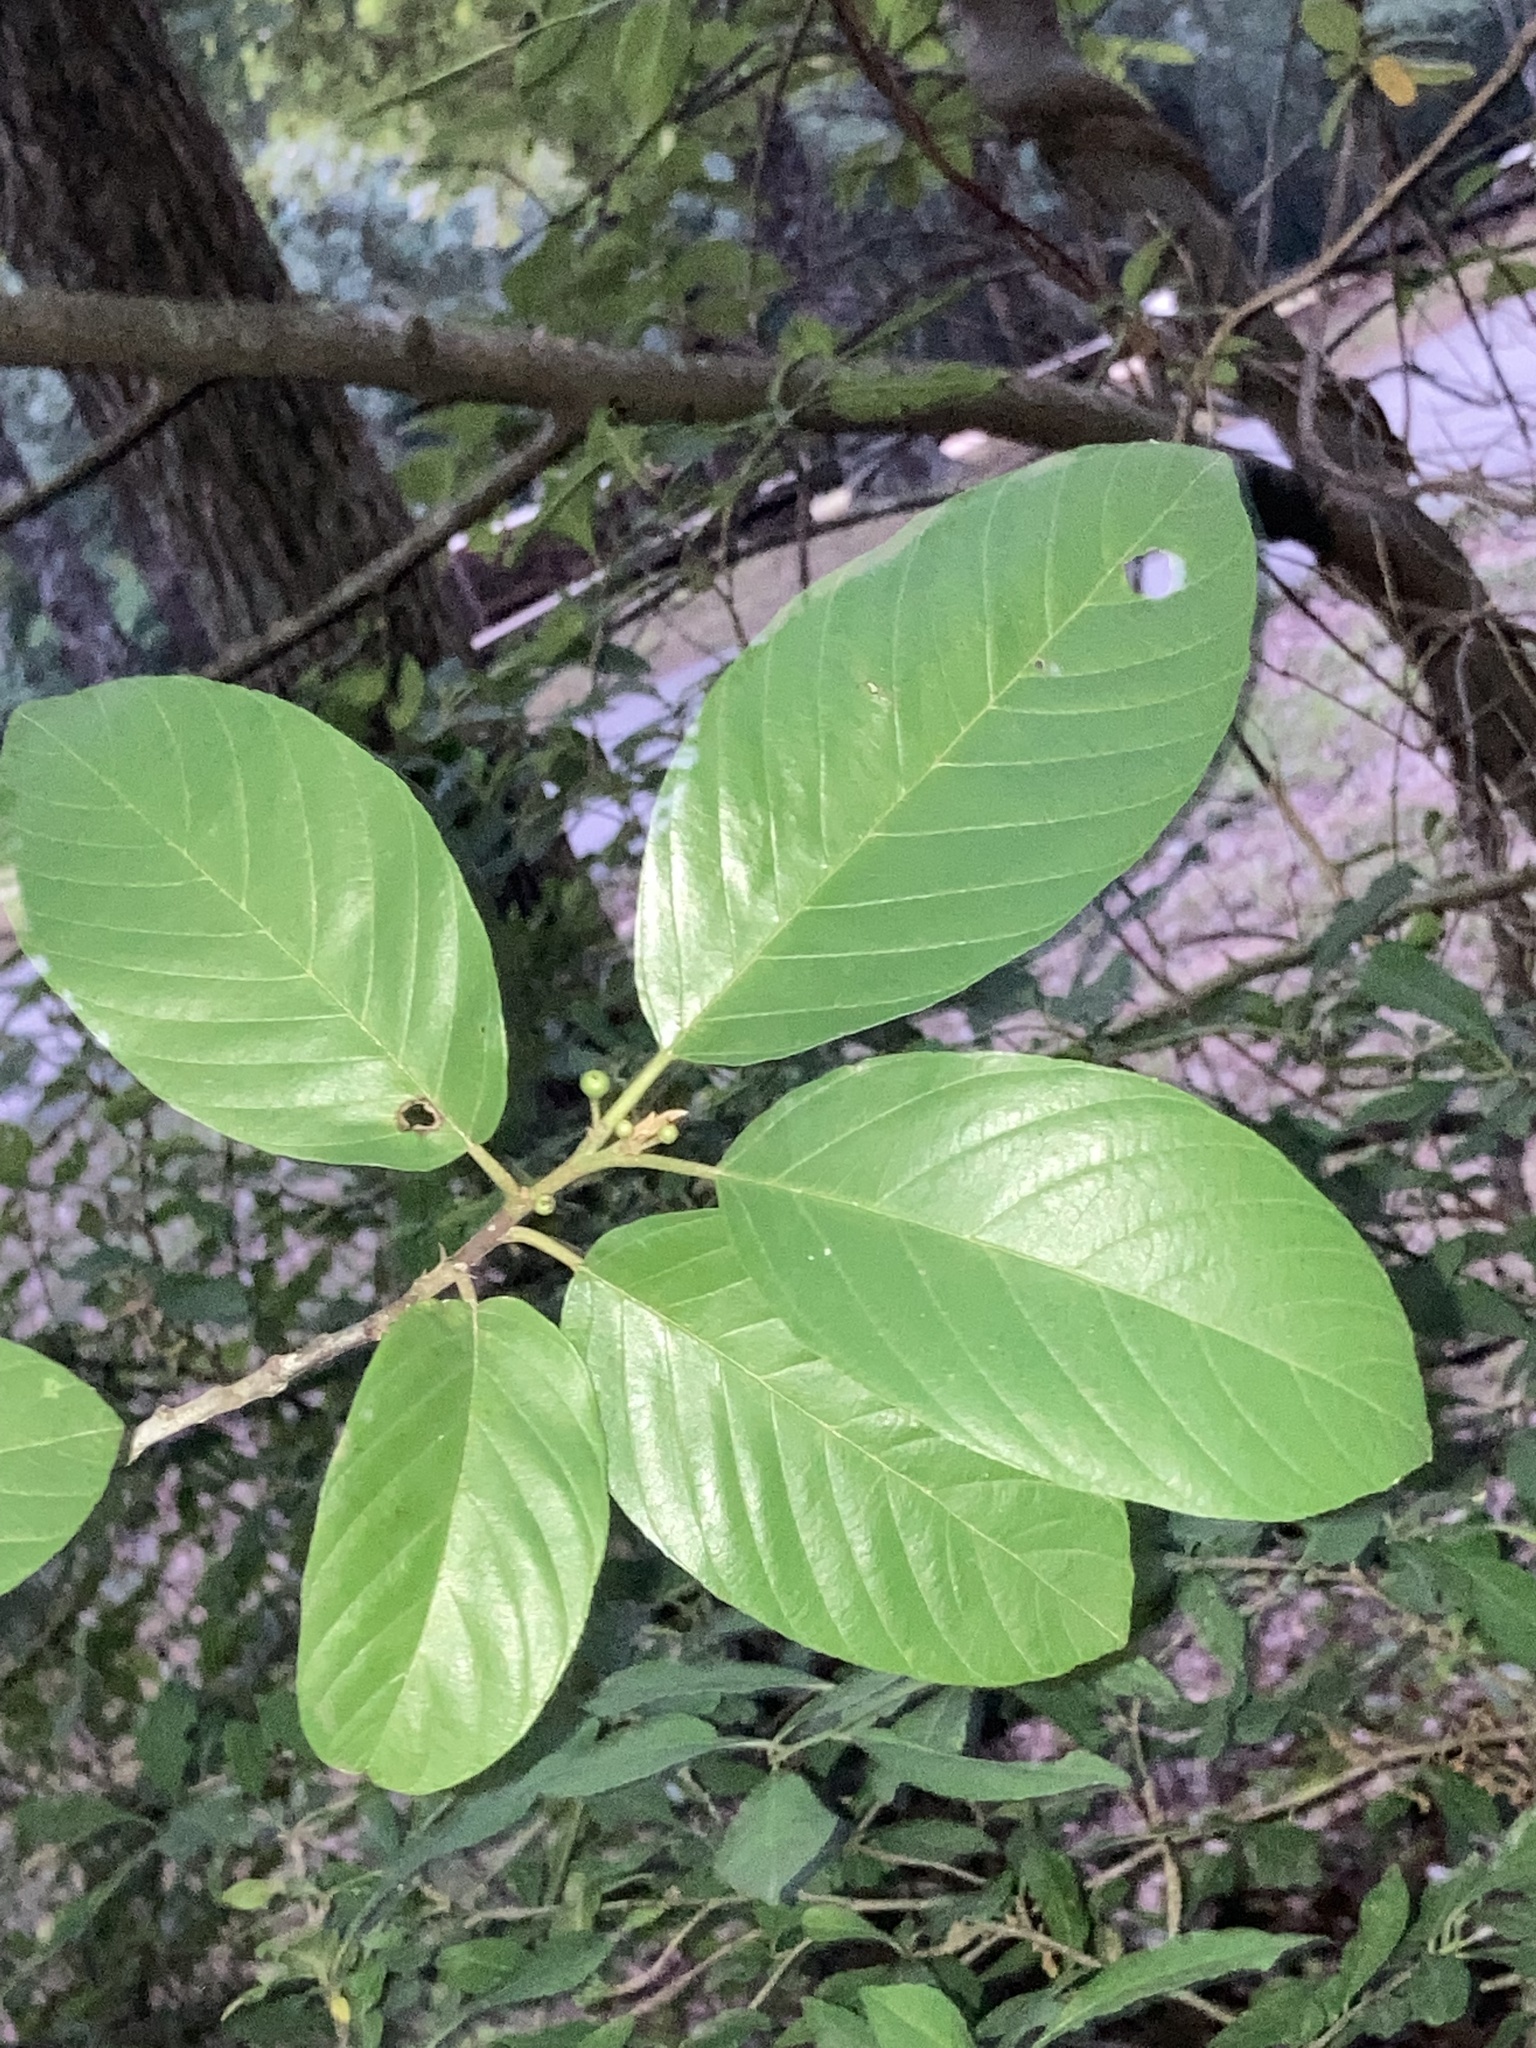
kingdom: Plantae
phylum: Tracheophyta
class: Magnoliopsida
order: Rosales
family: Rhamnaceae
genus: Frangula
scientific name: Frangula caroliniana
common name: Carolina buckthorn
